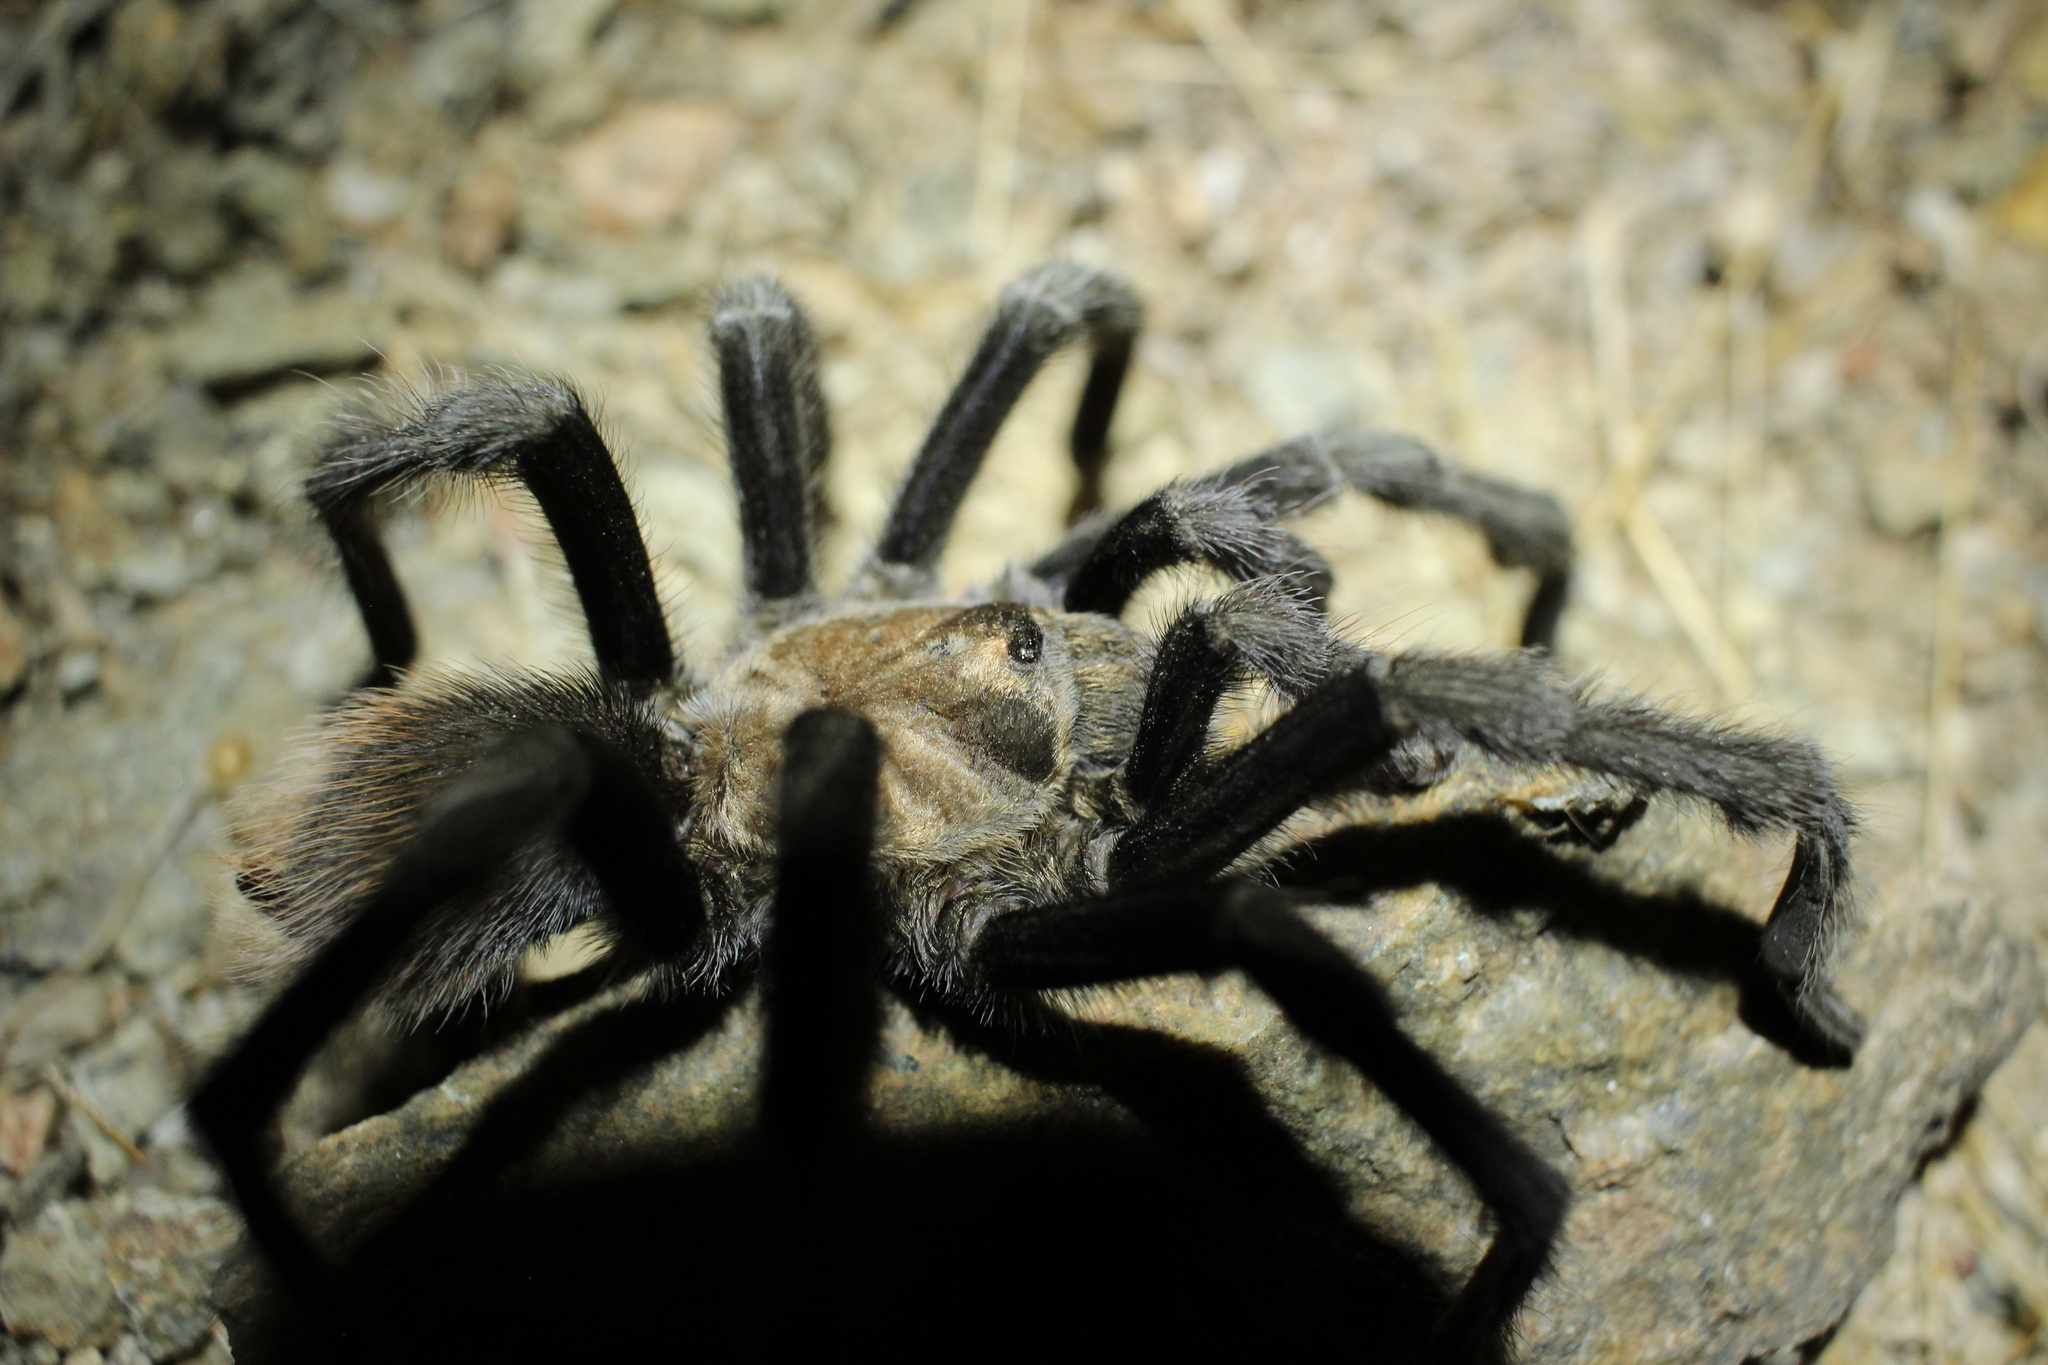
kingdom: Animalia
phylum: Arthropoda
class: Arachnida
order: Araneae
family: Theraphosidae
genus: Aphonopelma
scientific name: Aphonopelma iodius
